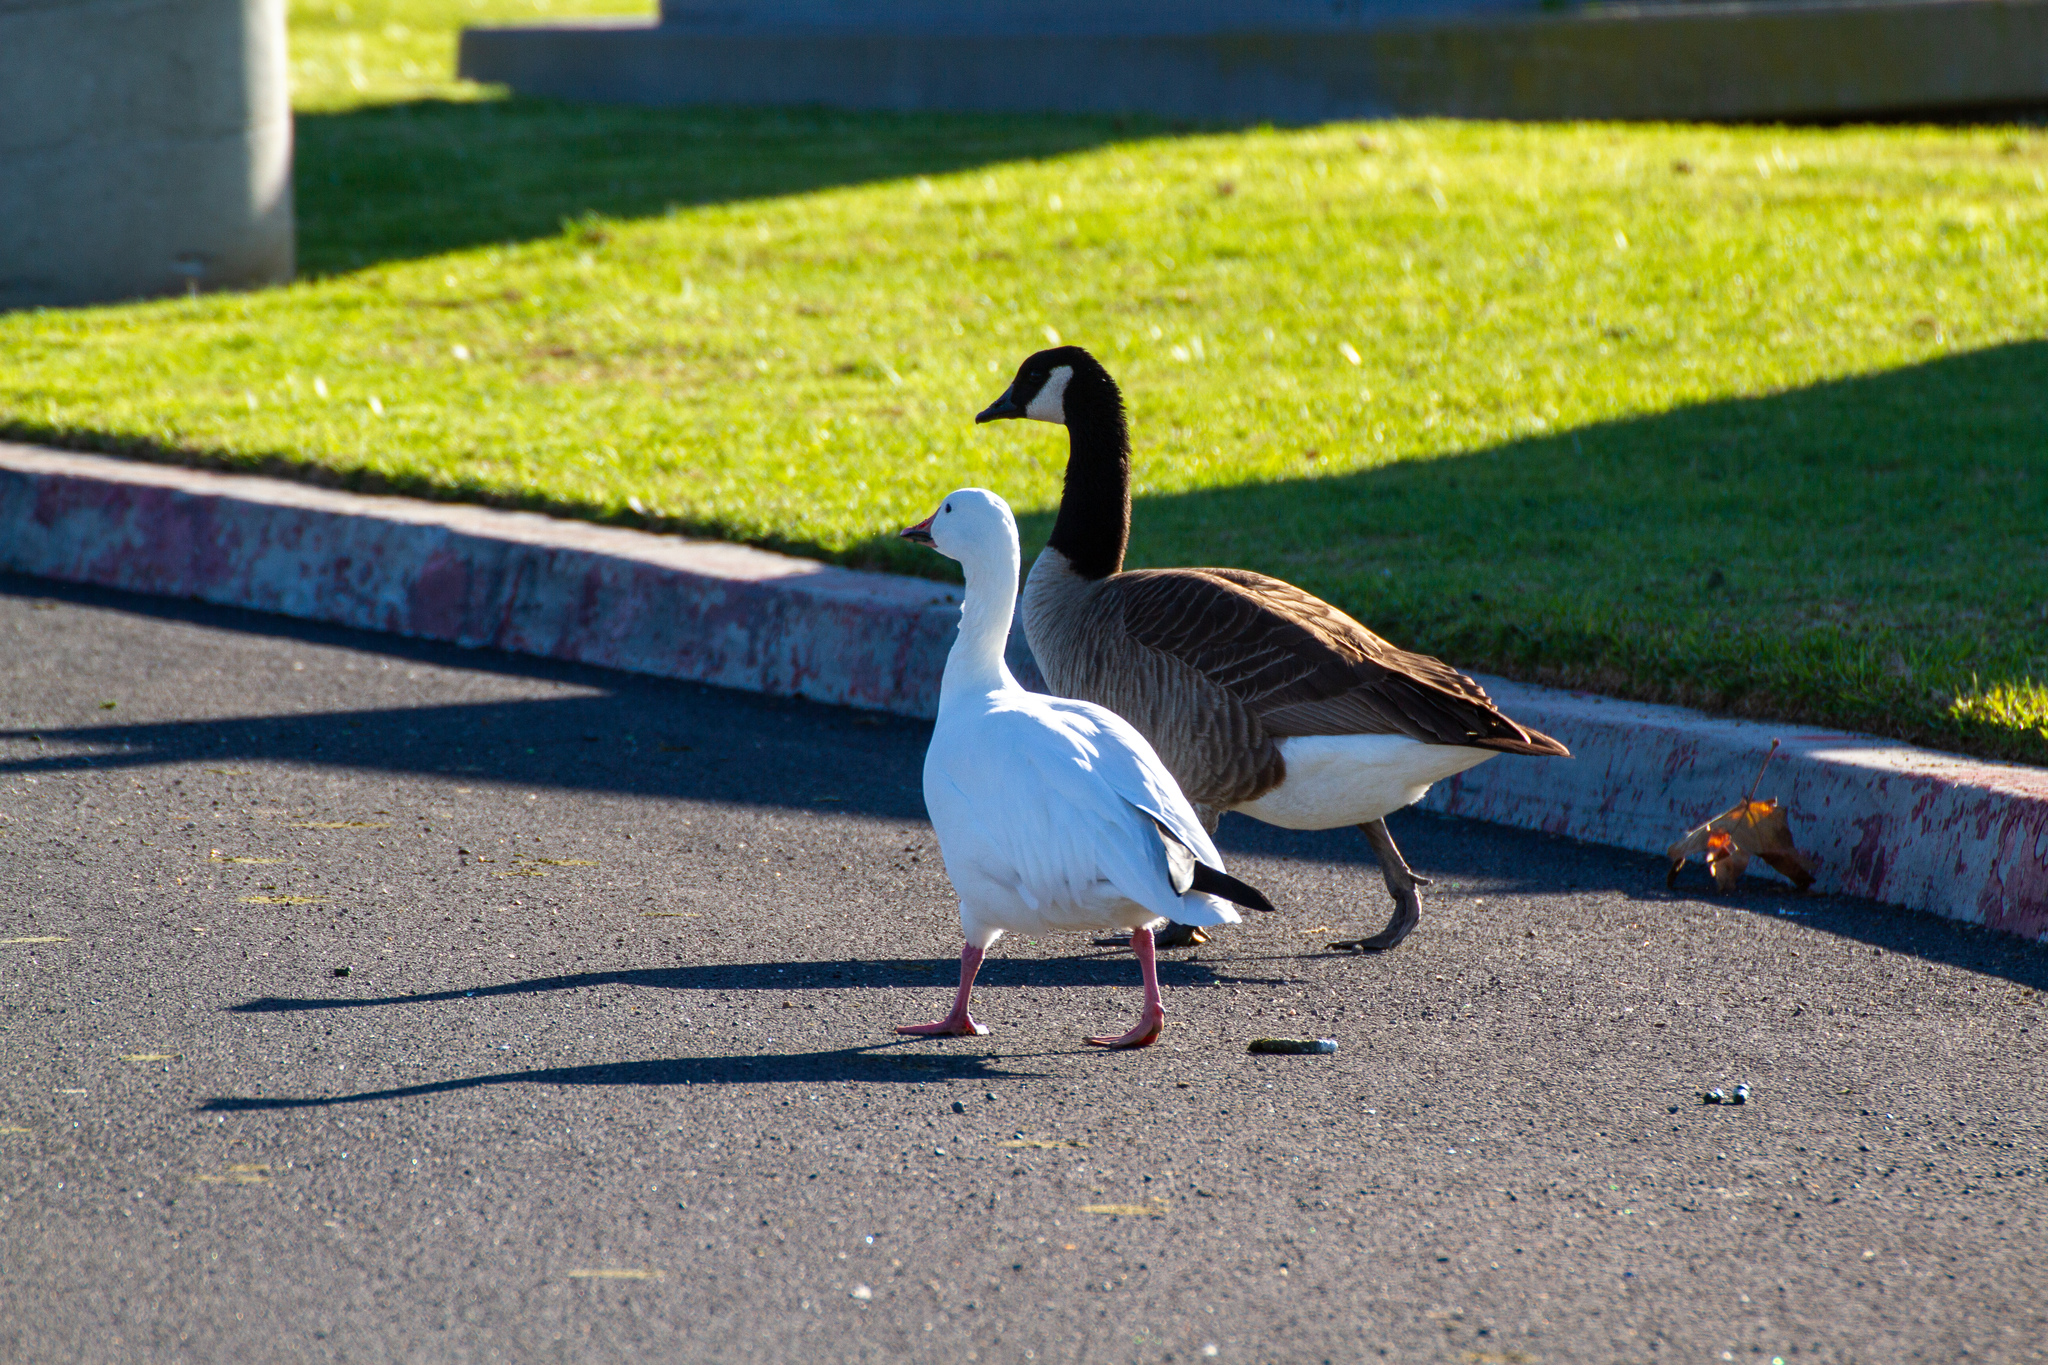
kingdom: Animalia
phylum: Chordata
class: Aves
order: Anseriformes
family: Anatidae
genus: Anser
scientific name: Anser caerulescens
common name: Snow goose
